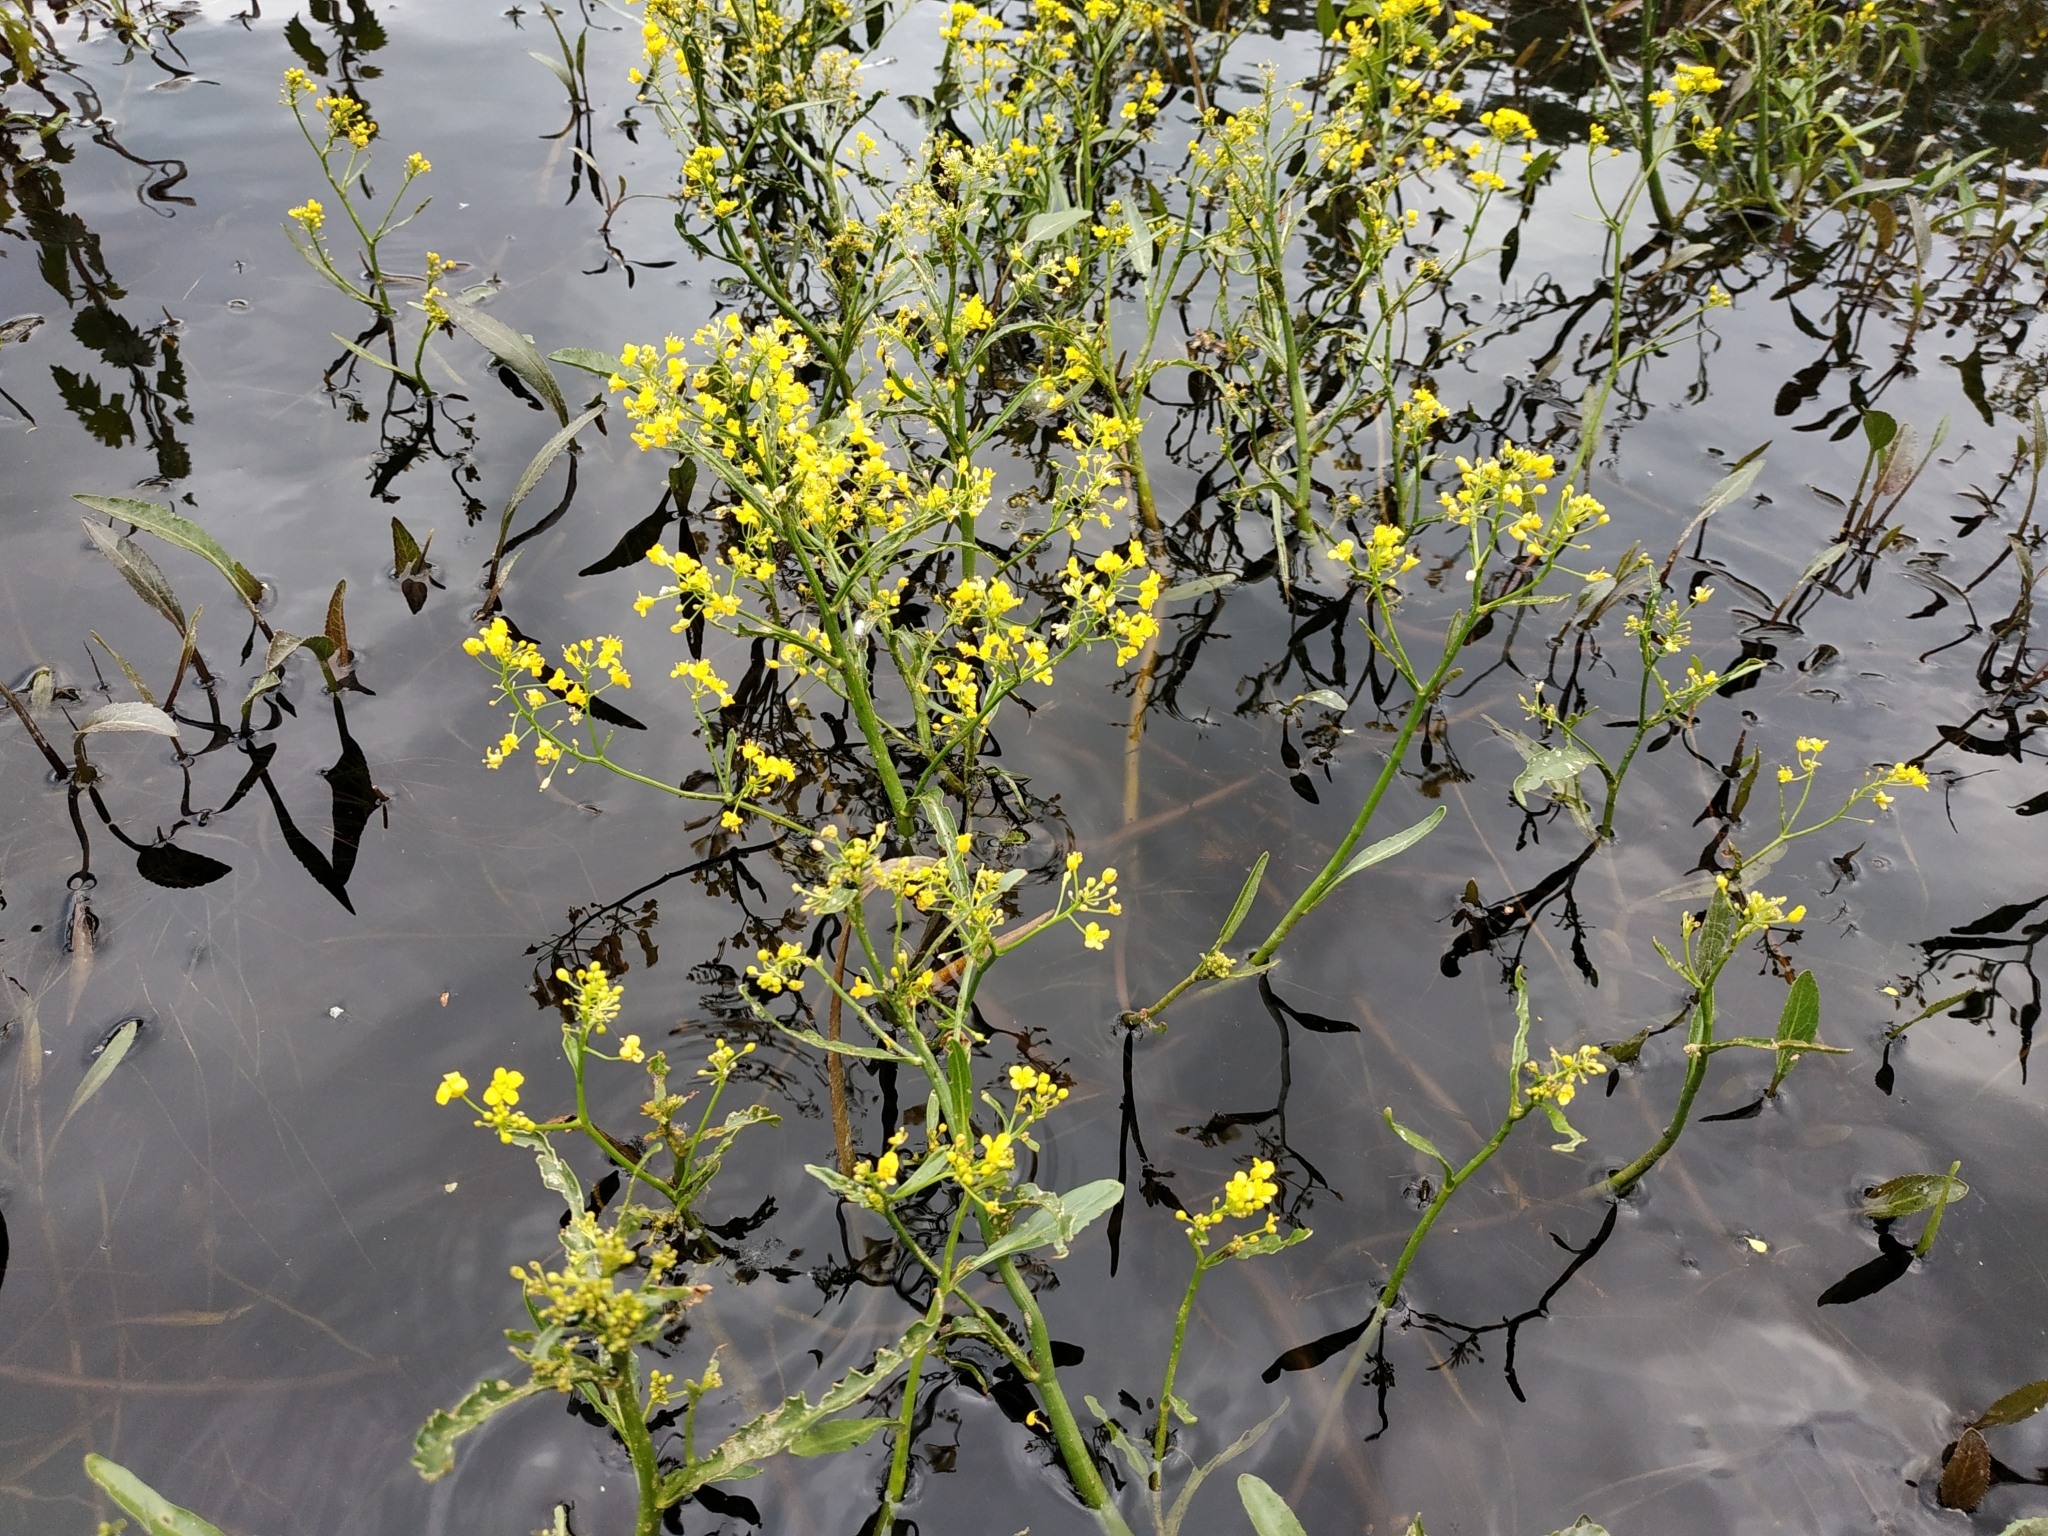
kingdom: Plantae
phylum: Tracheophyta
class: Magnoliopsida
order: Brassicales
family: Brassicaceae
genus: Rorippa
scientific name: Rorippa amphibia
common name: Great yellow-cress
